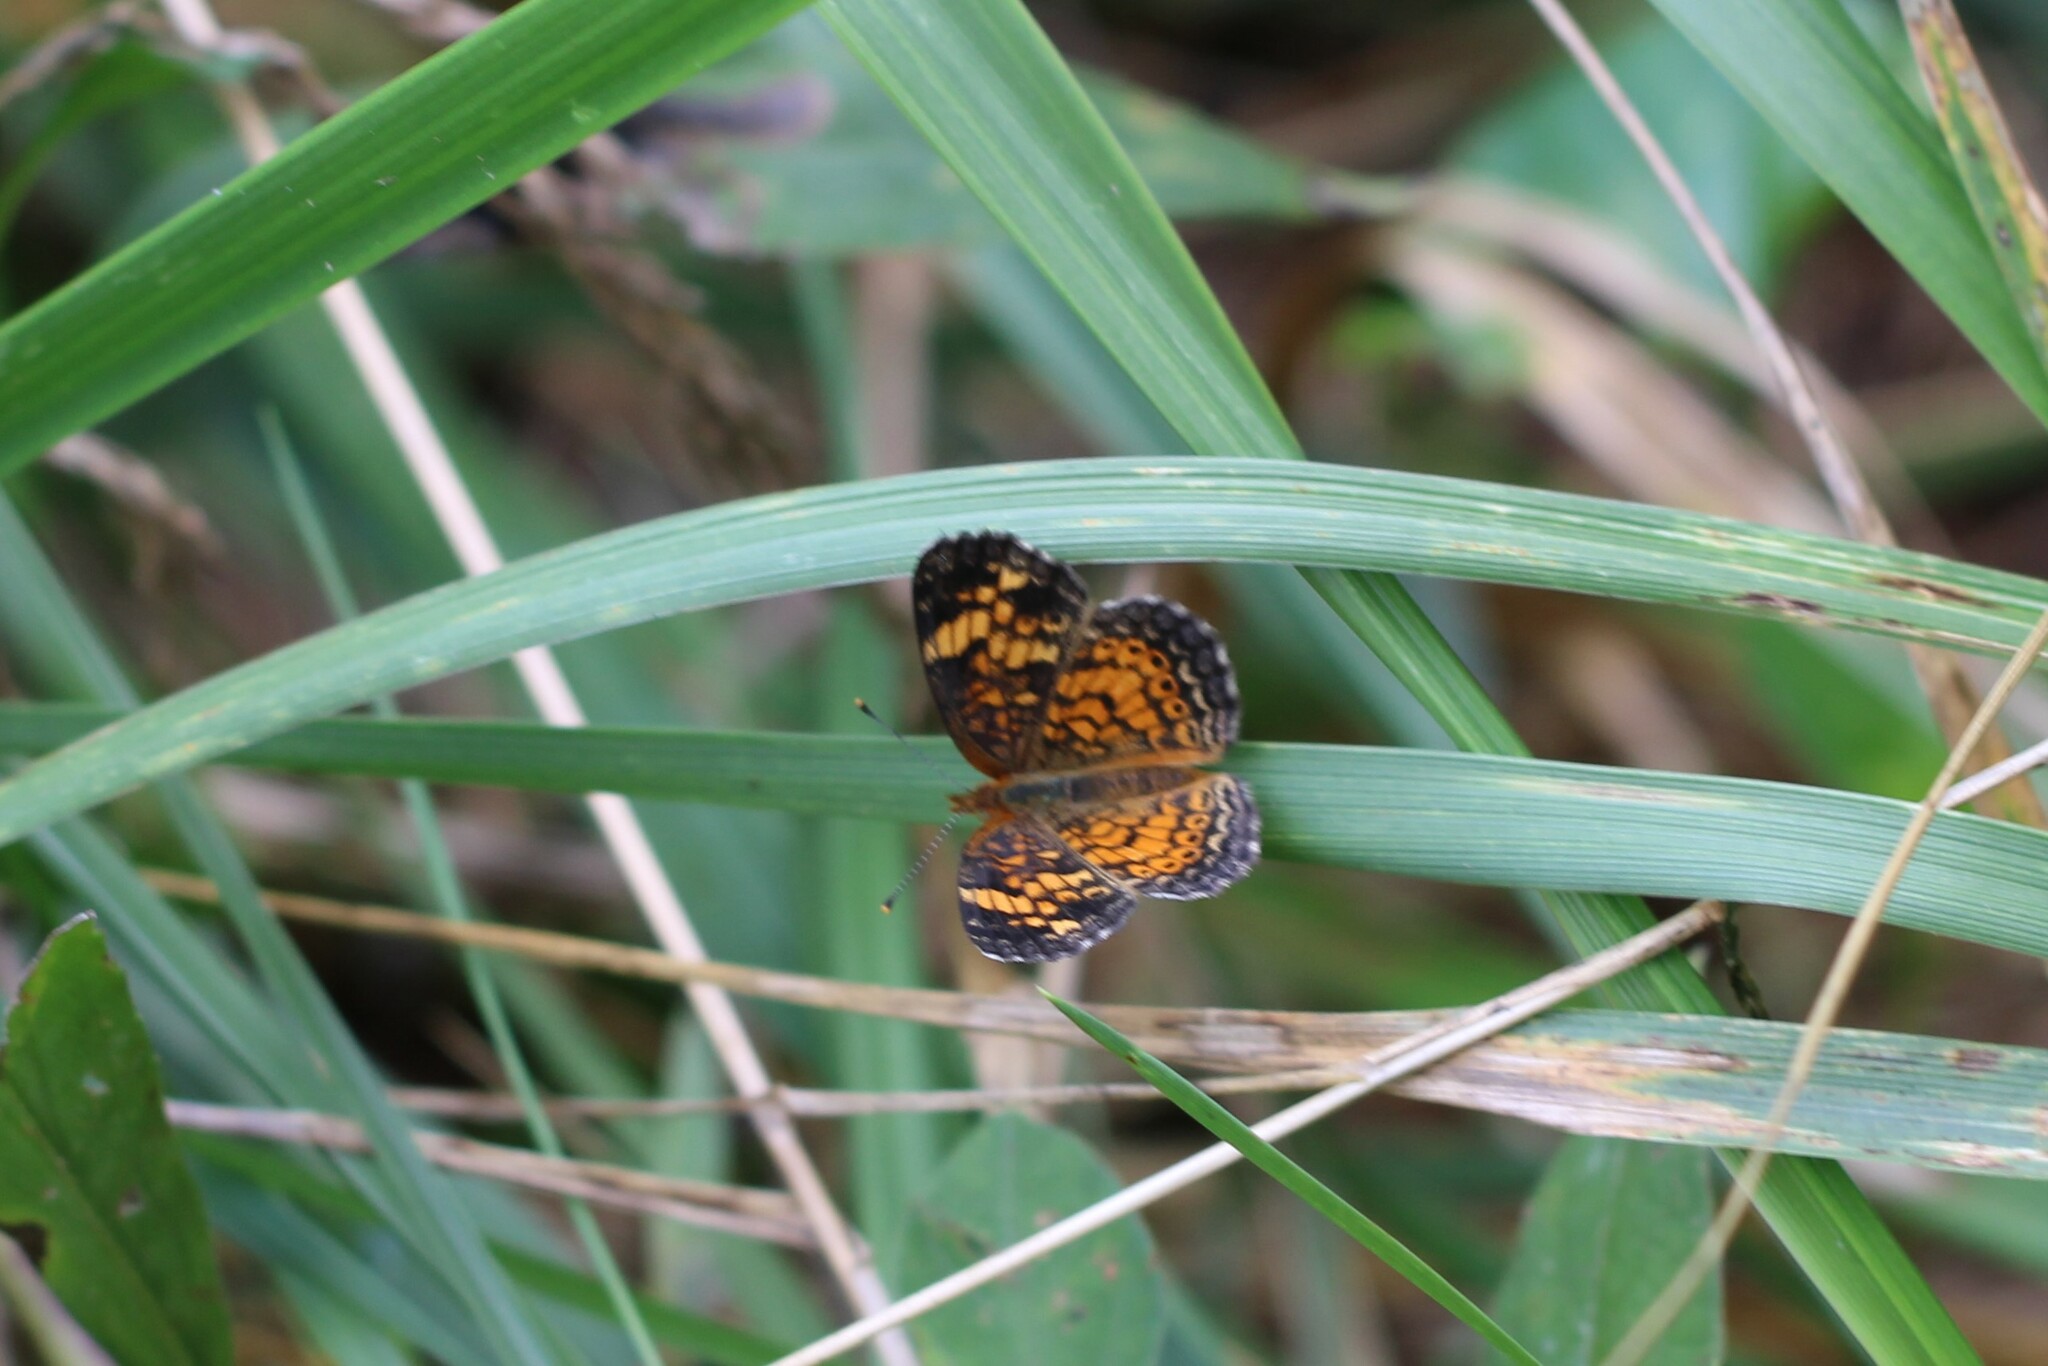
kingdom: Animalia
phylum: Arthropoda
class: Insecta
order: Lepidoptera
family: Nymphalidae
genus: Phyciodes
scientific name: Phyciodes tharos
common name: Pearl crescent
